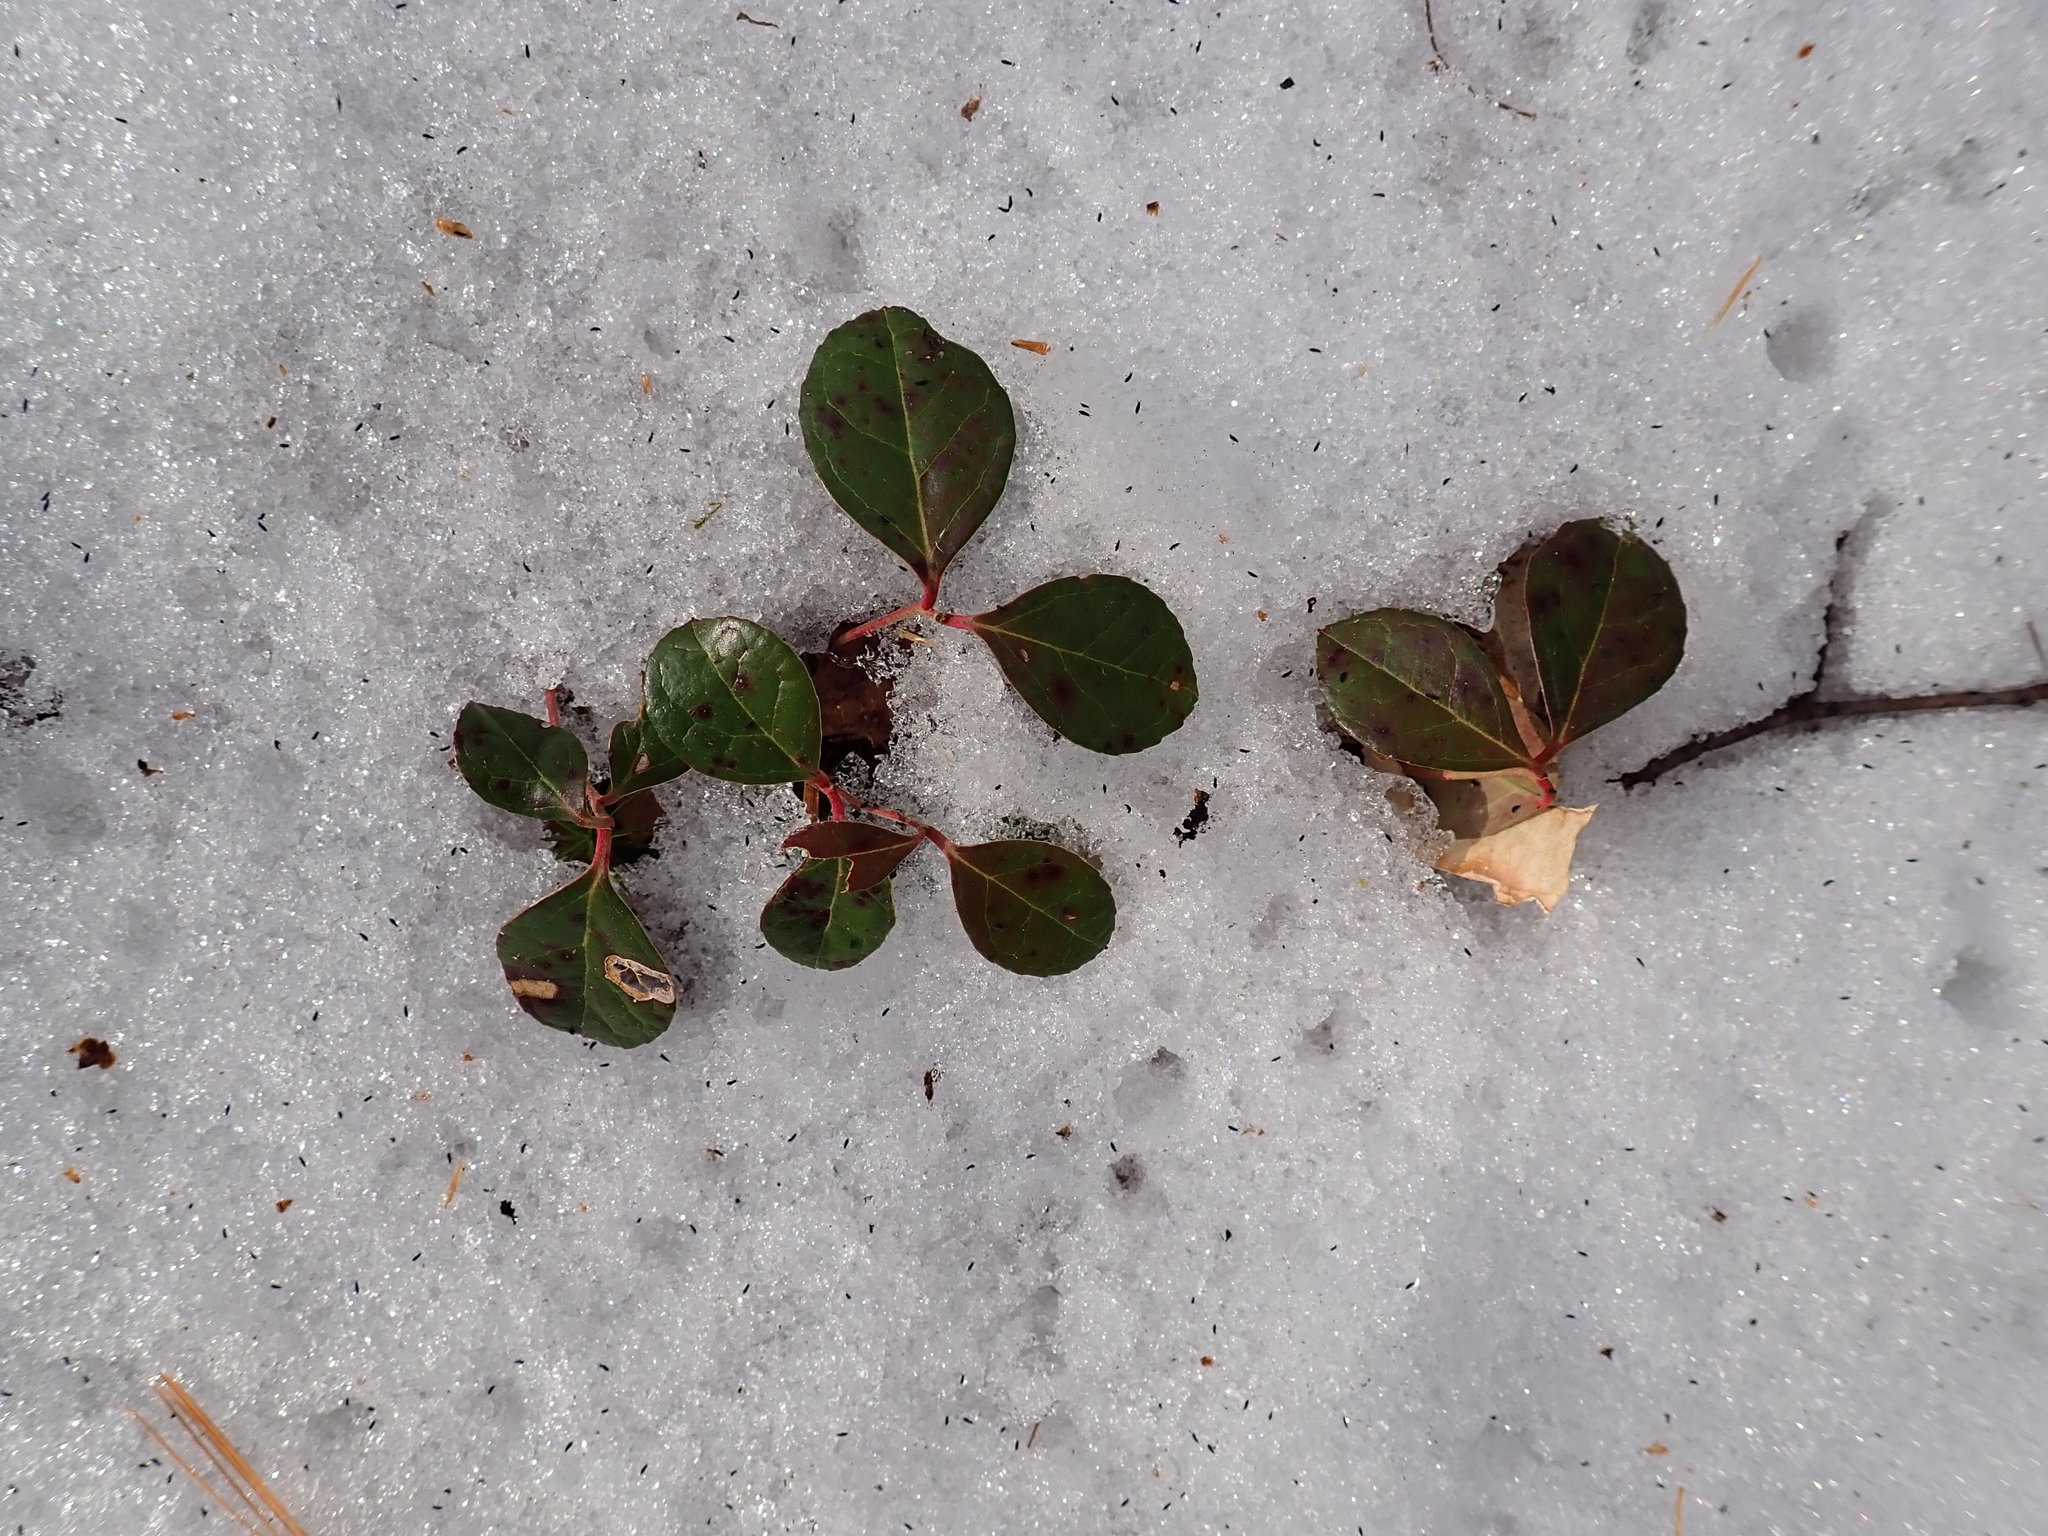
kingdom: Plantae
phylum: Tracheophyta
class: Magnoliopsida
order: Ericales
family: Ericaceae
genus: Gaultheria
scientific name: Gaultheria procumbens
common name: Checkerberry
